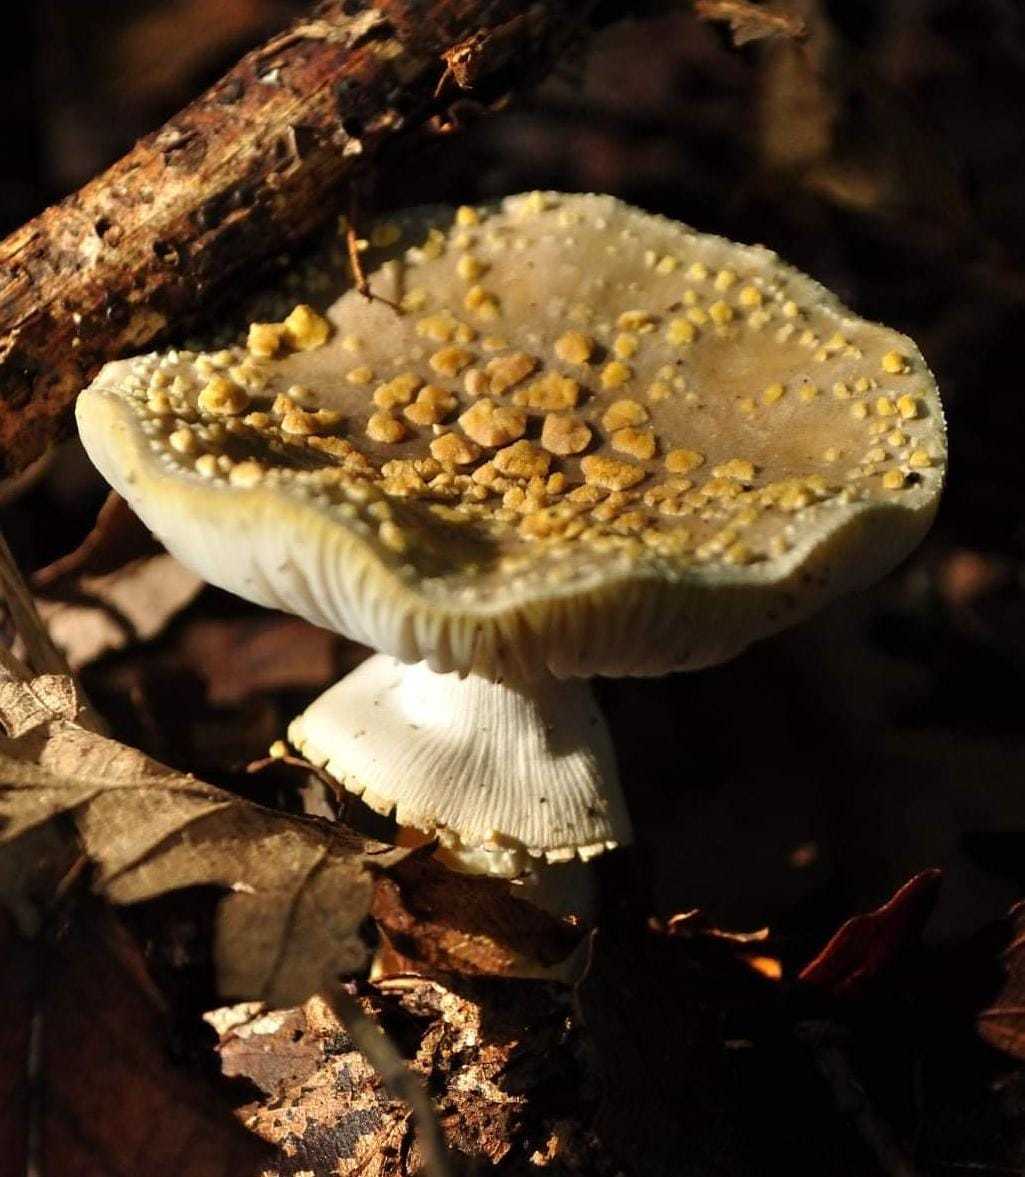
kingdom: Fungi
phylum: Basidiomycota
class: Agaricomycetes
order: Agaricales
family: Amanitaceae
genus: Amanita
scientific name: Amanita franchetii
